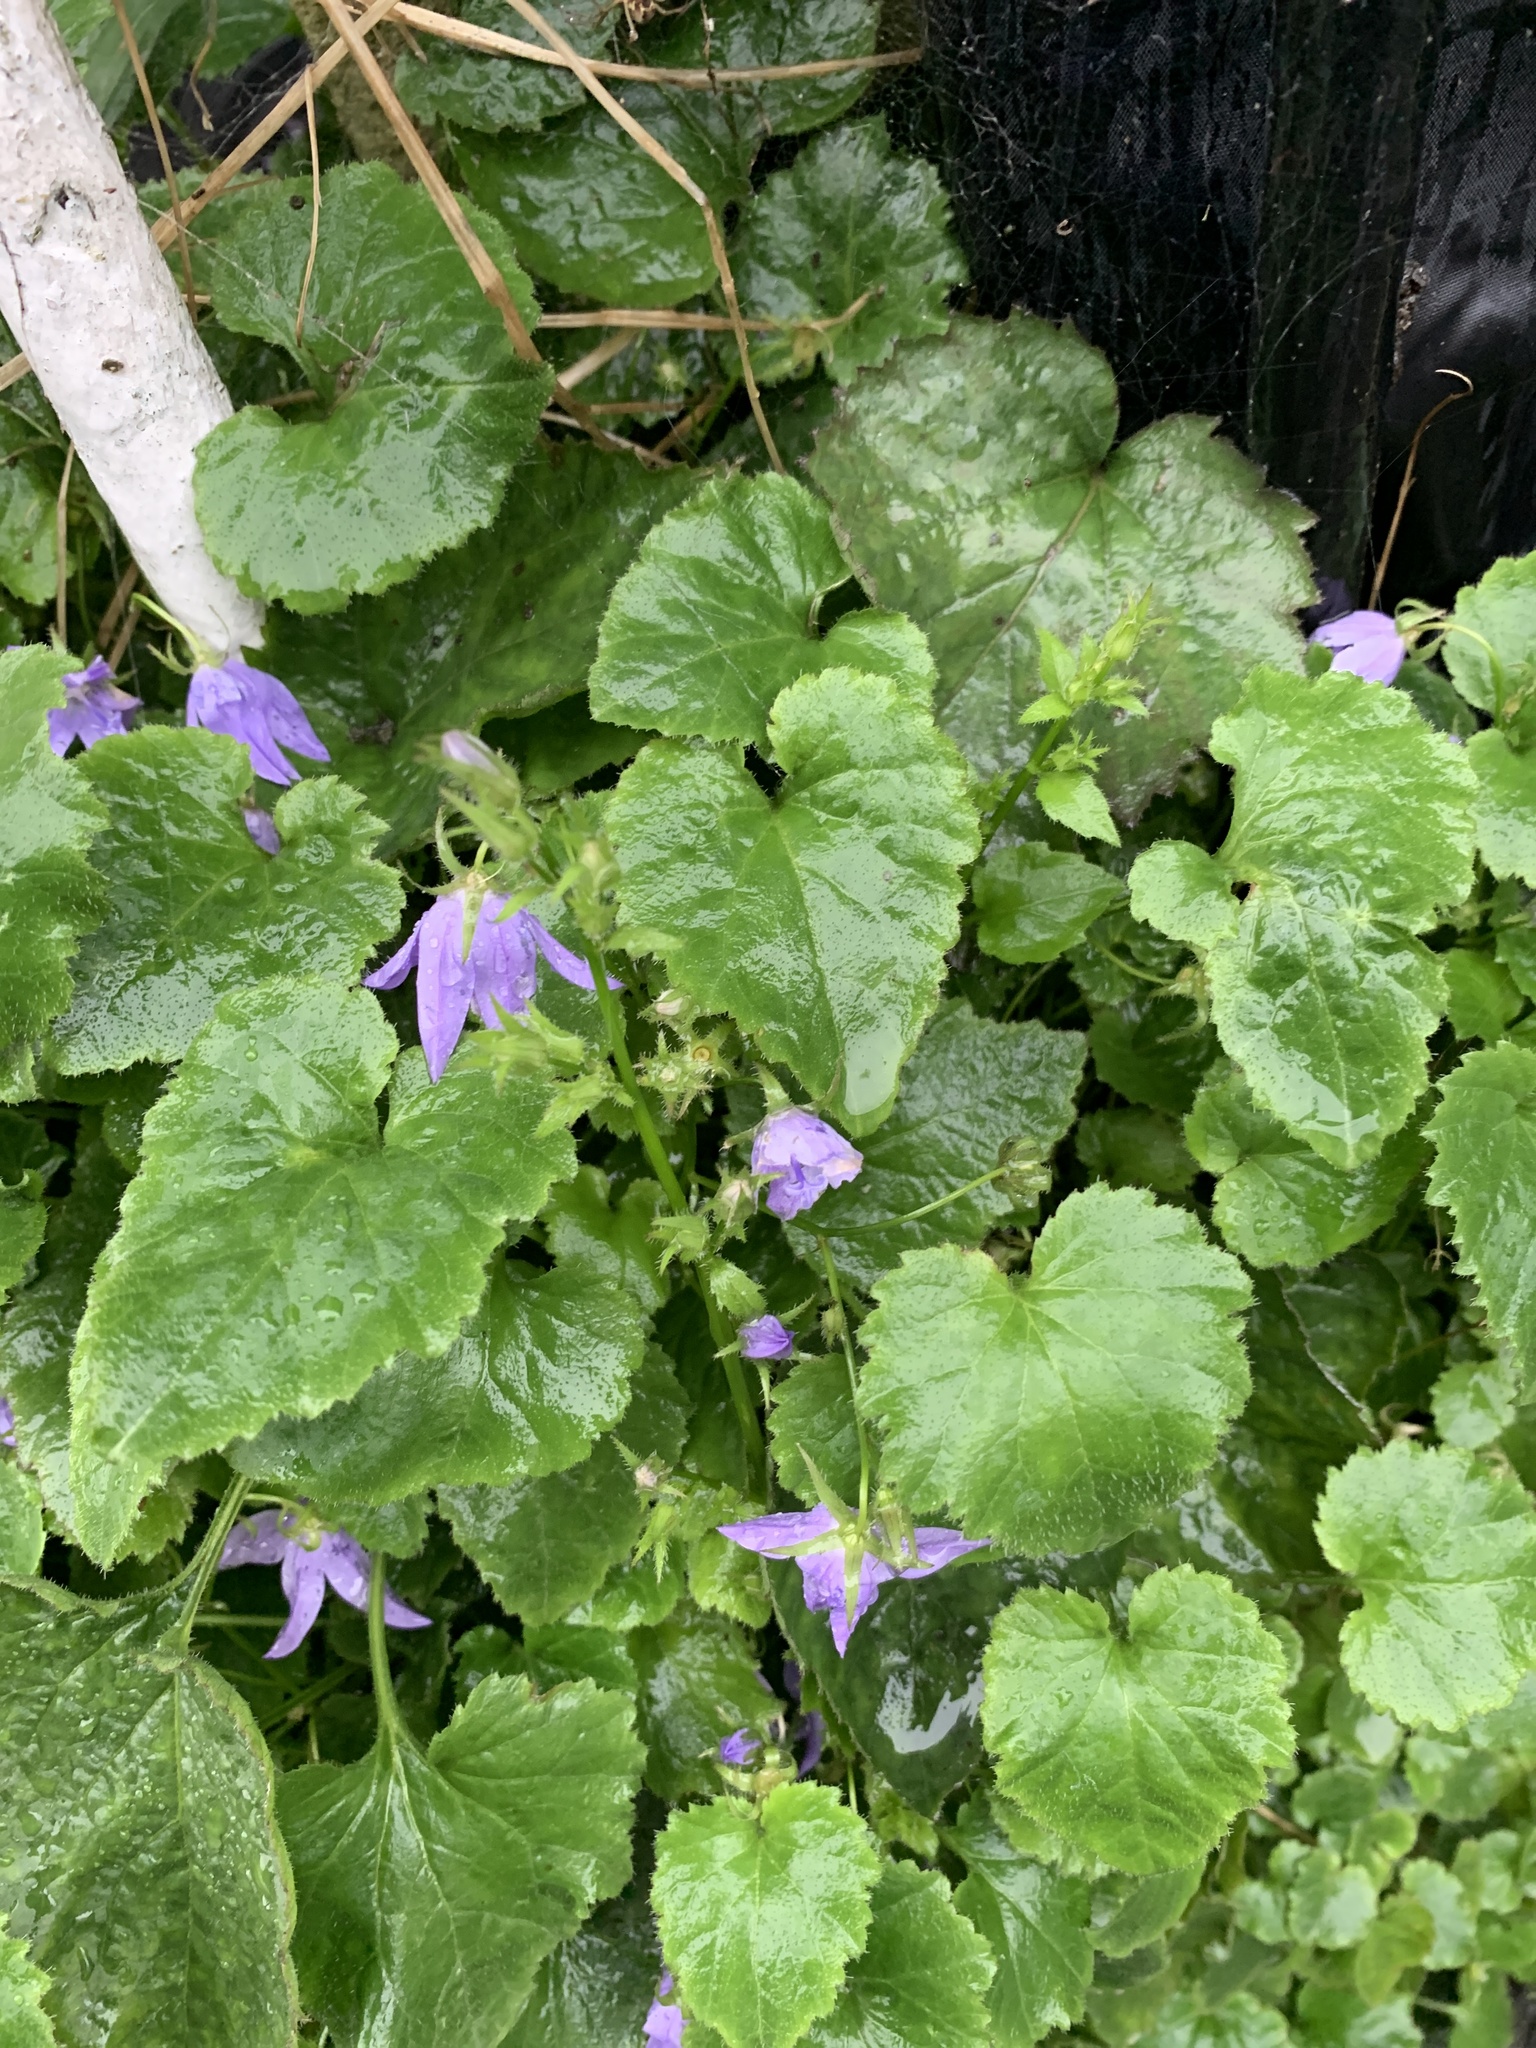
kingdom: Plantae
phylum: Tracheophyta
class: Magnoliopsida
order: Asterales
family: Campanulaceae
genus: Campanula
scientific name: Campanula poscharskyana
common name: Trailing bellflower
